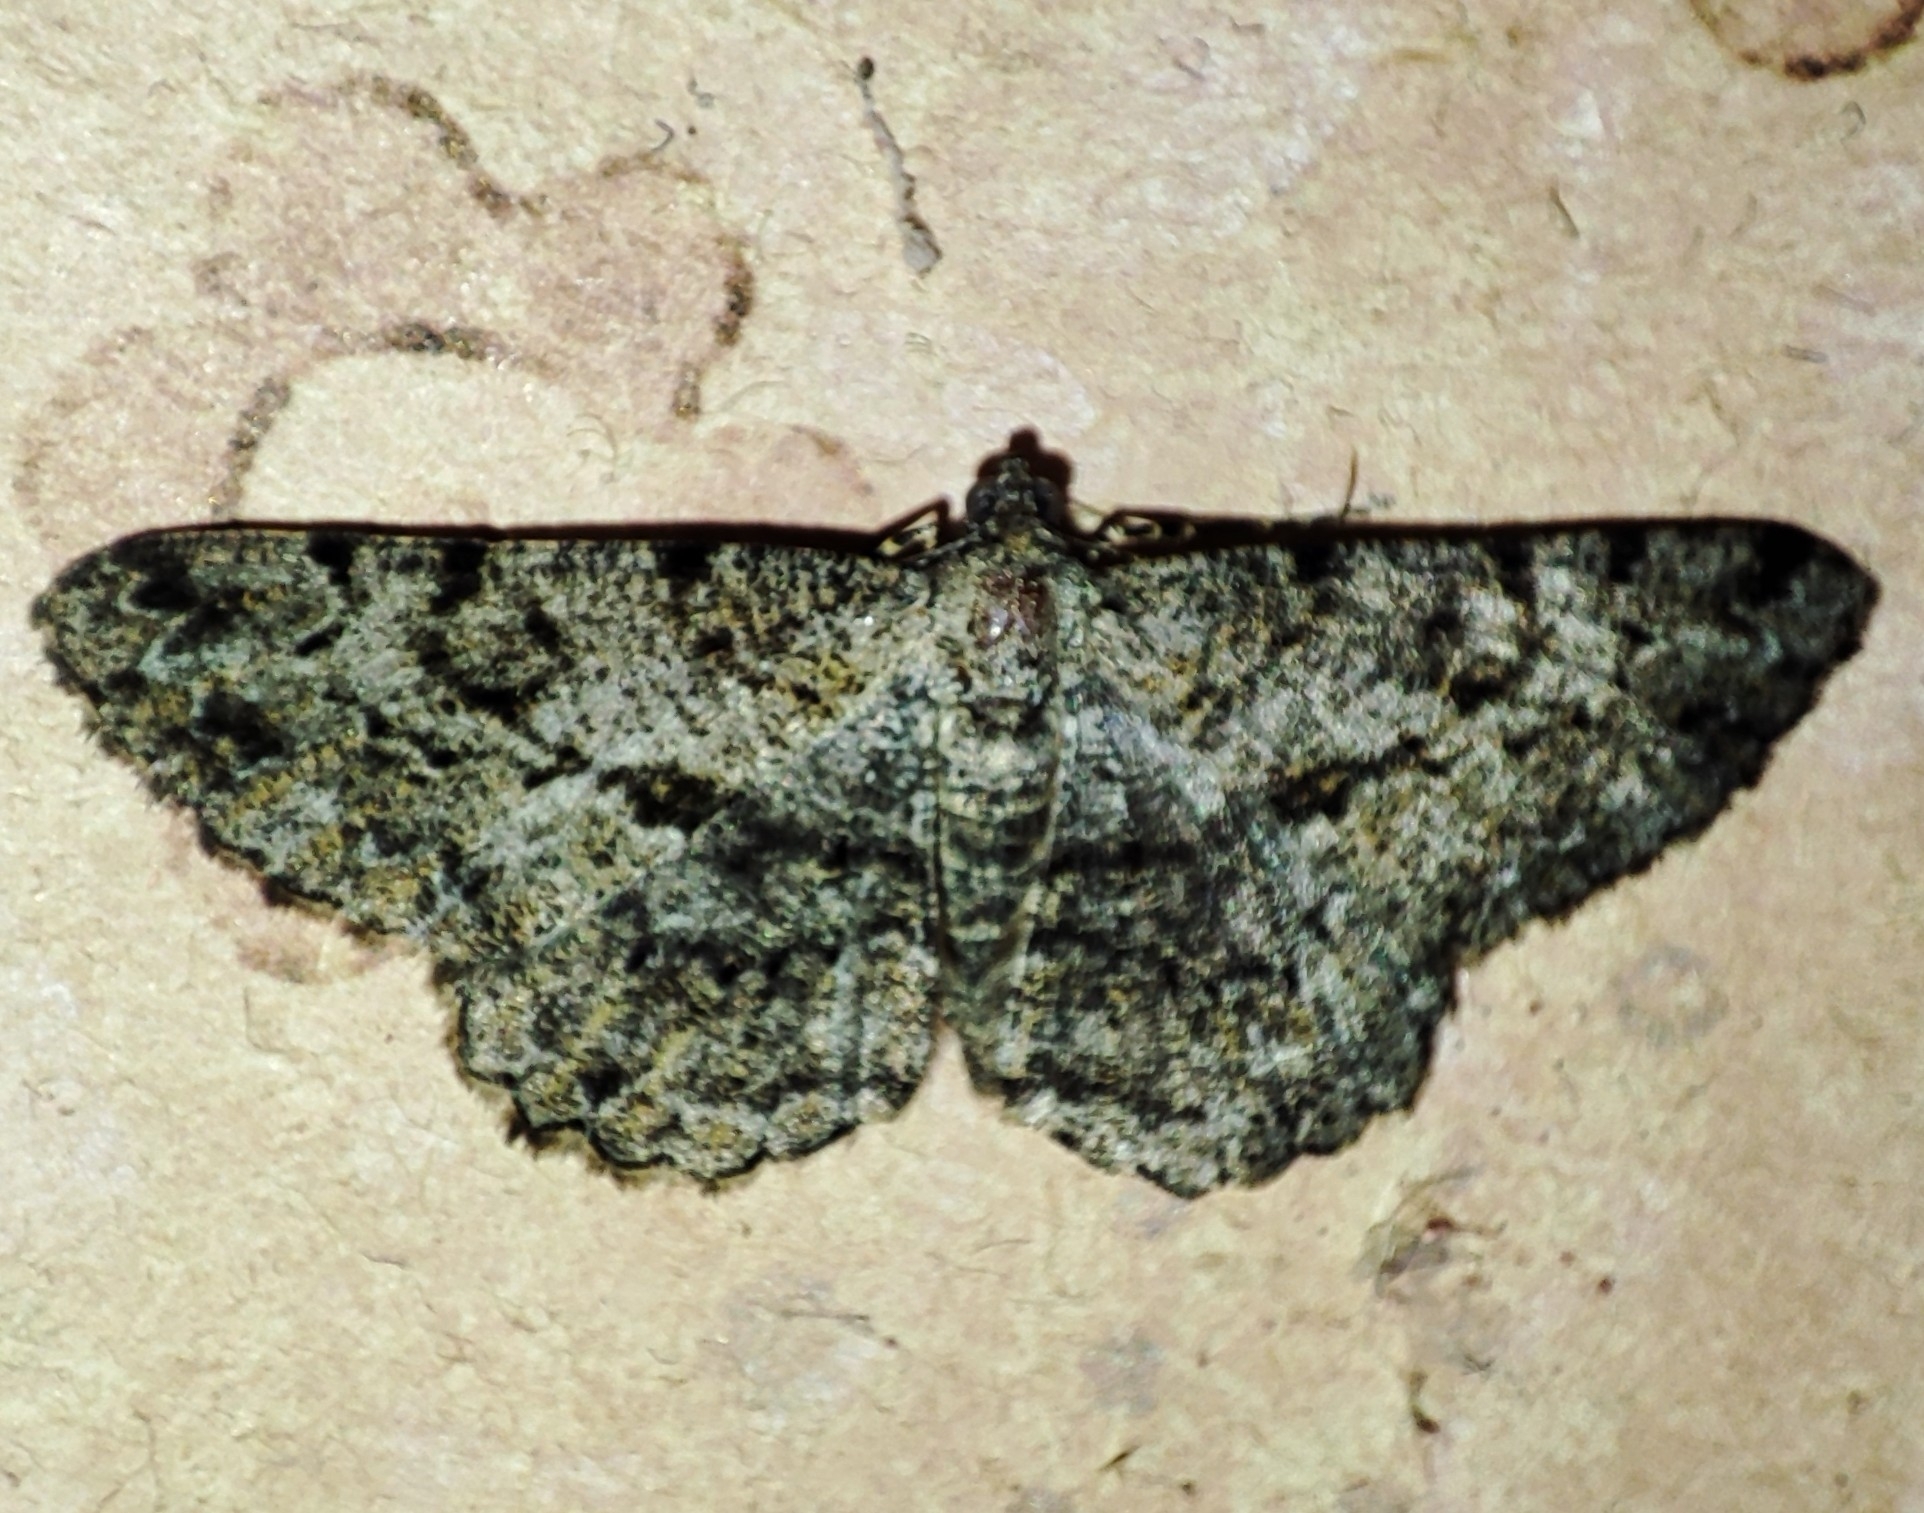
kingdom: Animalia
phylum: Arthropoda
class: Insecta
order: Lepidoptera
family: Geometridae
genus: Peribatodes
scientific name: Peribatodes rhomboidaria
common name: Willow beauty
